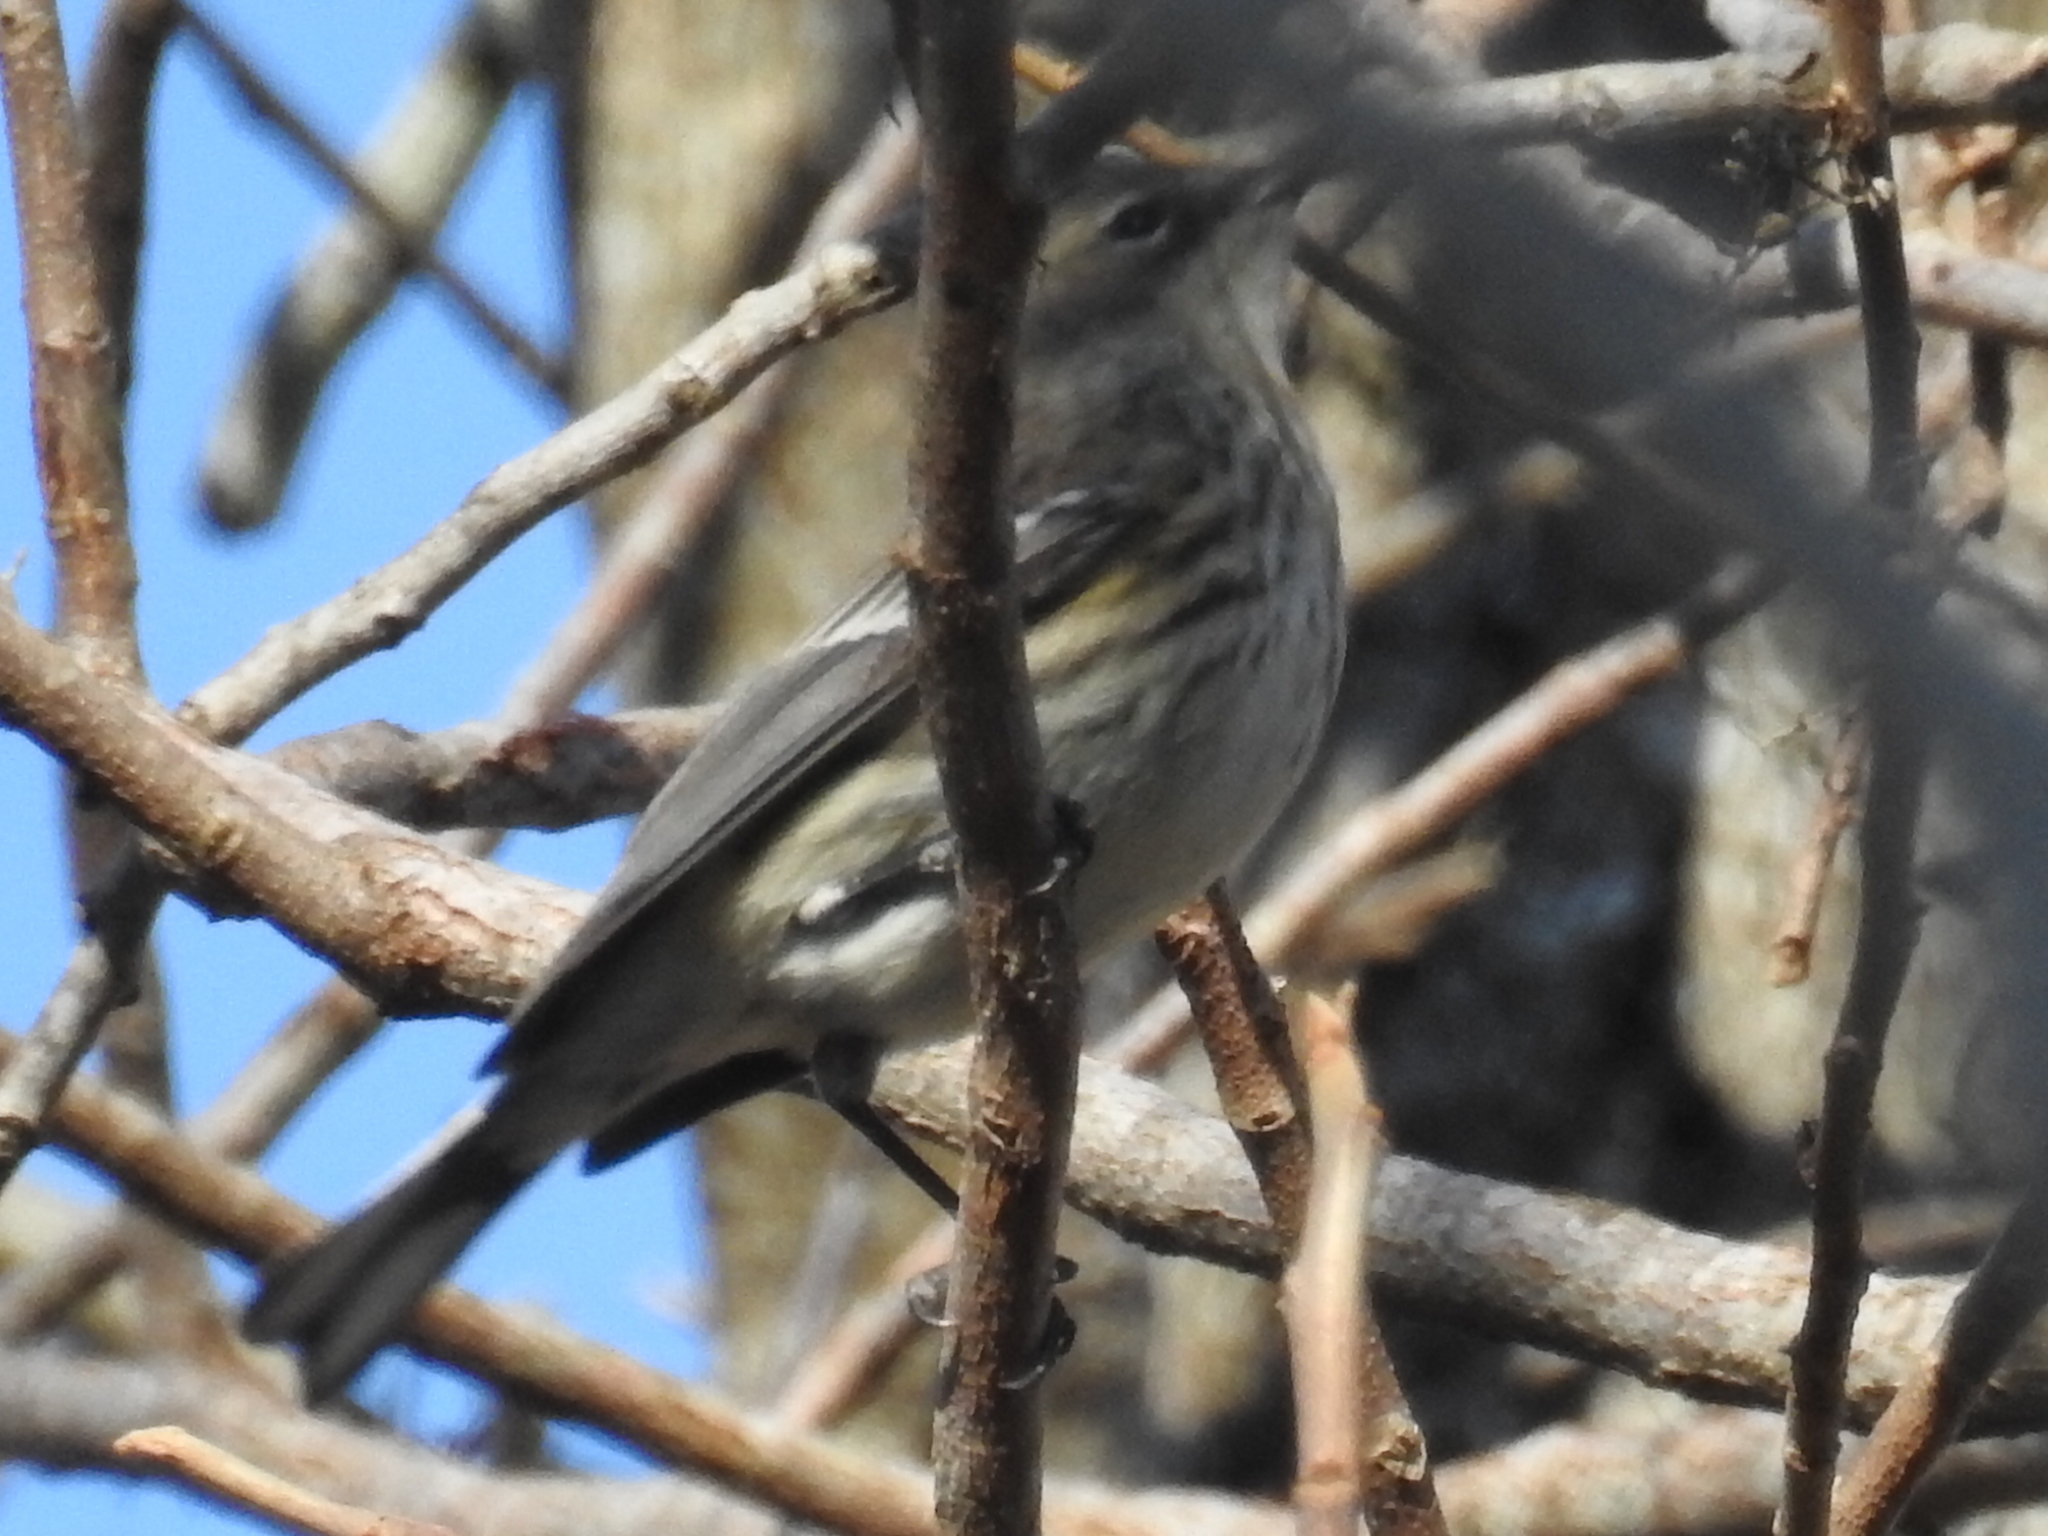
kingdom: Animalia
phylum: Chordata
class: Aves
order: Passeriformes
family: Parulidae
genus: Setophaga
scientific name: Setophaga coronata
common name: Myrtle warbler
